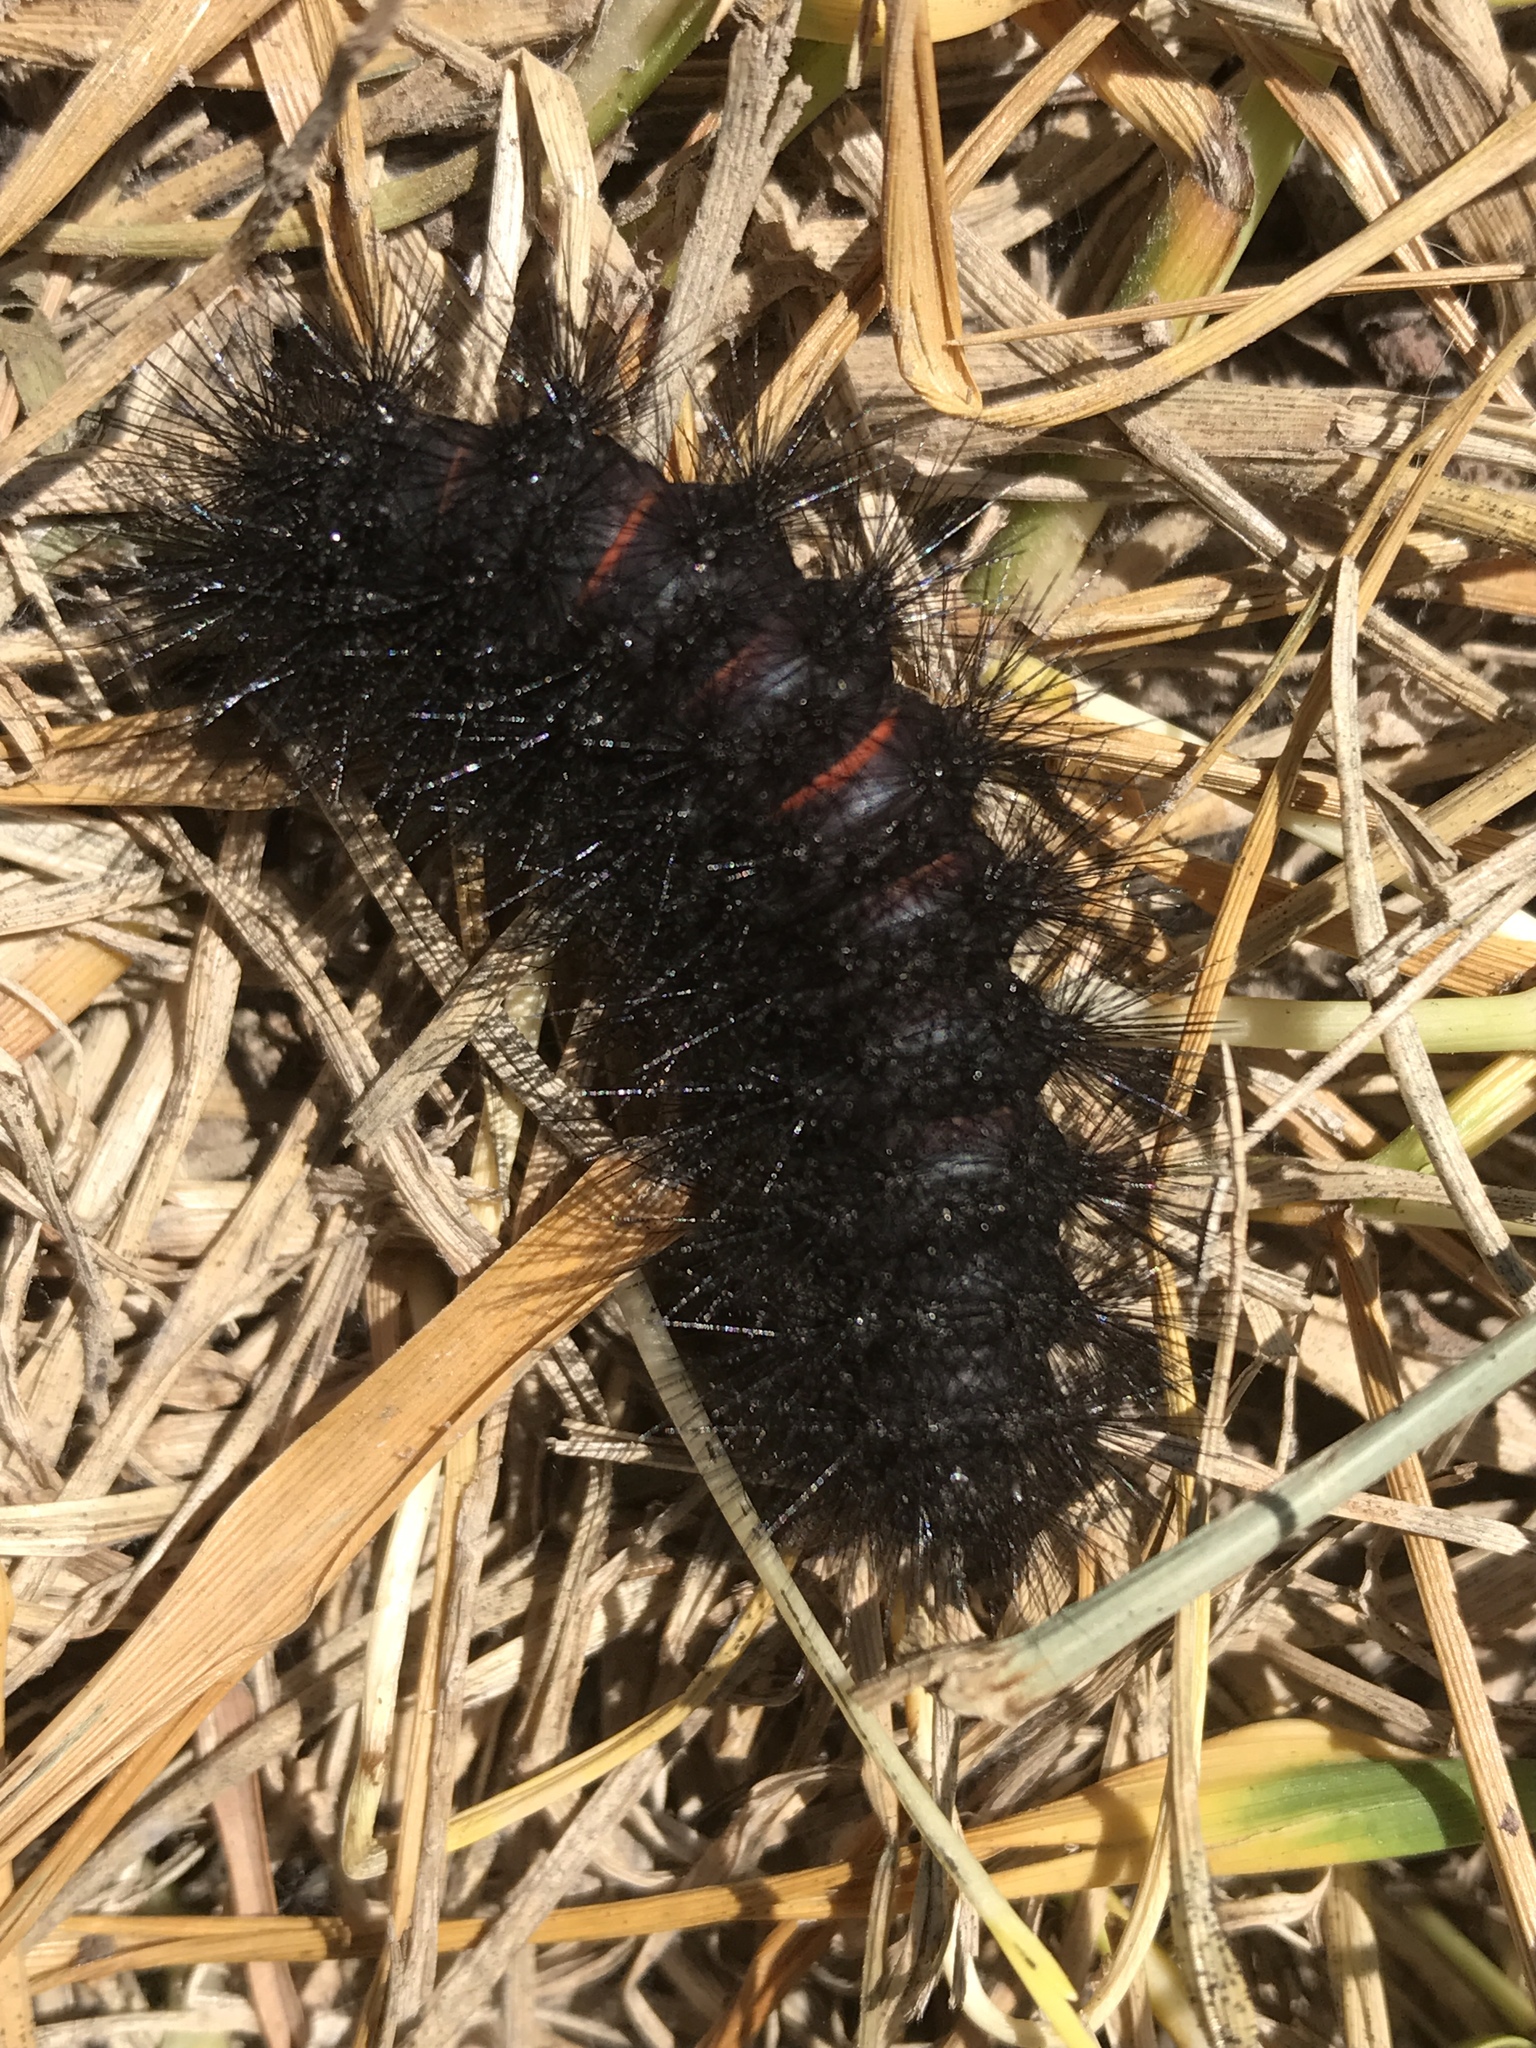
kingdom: Animalia
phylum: Arthropoda
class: Insecta
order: Lepidoptera
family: Erebidae
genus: Hypercompe
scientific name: Hypercompe scribonia
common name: Giant leopard moth
